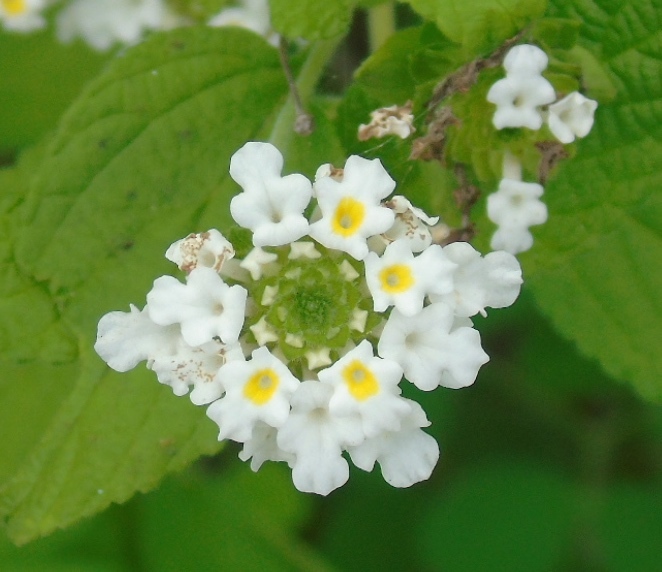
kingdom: Plantae
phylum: Tracheophyta
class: Magnoliopsida
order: Lamiales
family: Verbenaceae
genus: Lantana
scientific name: Lantana velutina
